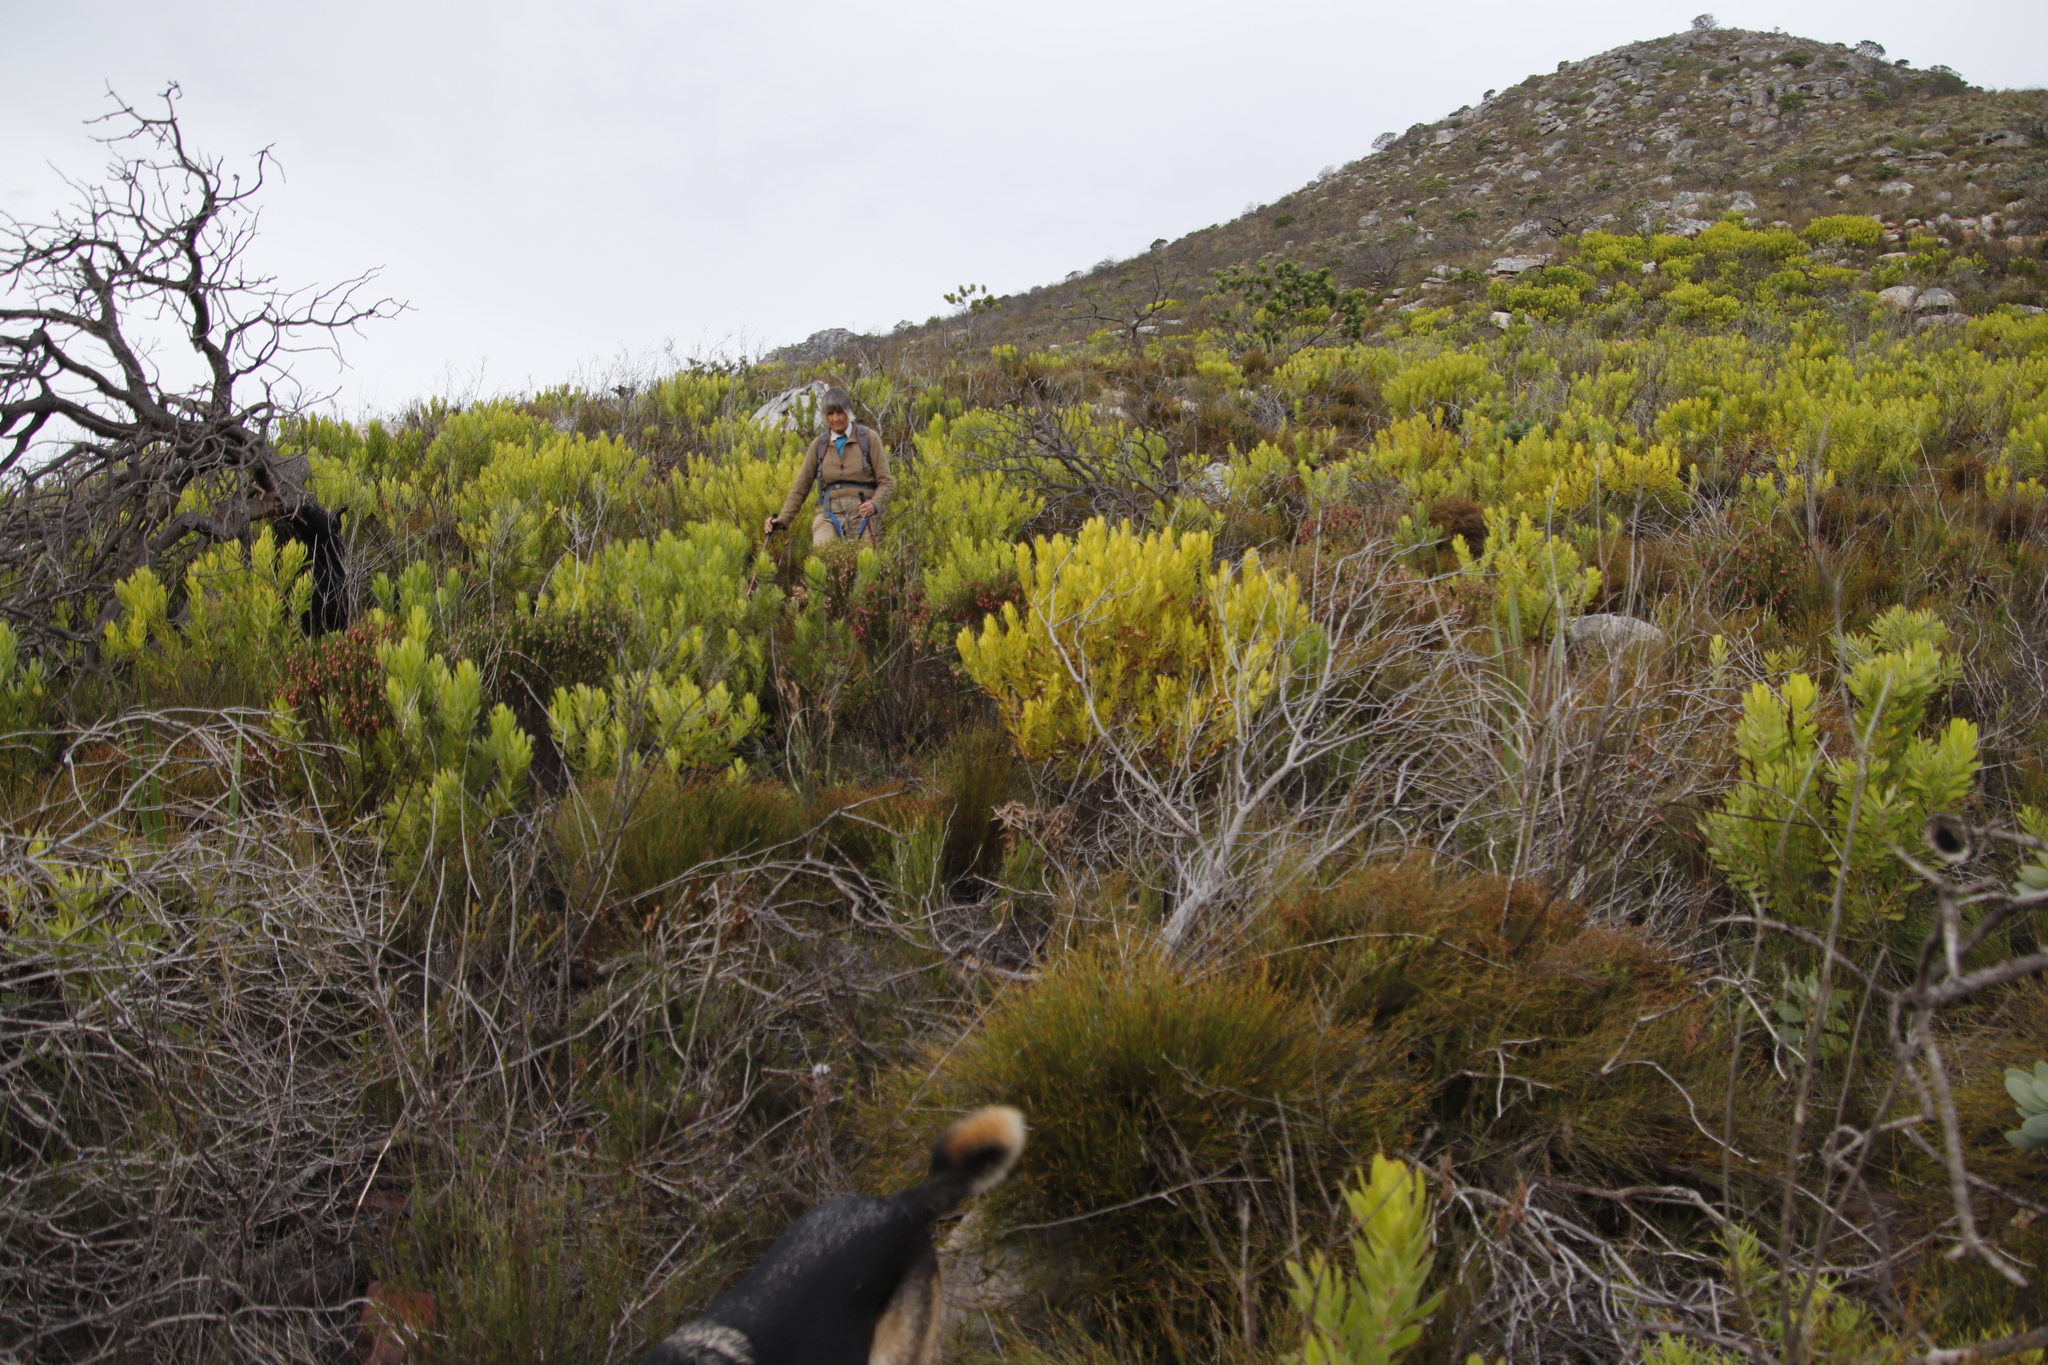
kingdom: Plantae
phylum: Tracheophyta
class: Magnoliopsida
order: Proteales
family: Proteaceae
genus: Leucadendron
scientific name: Leucadendron laureolum
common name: Golden sunshinebush
